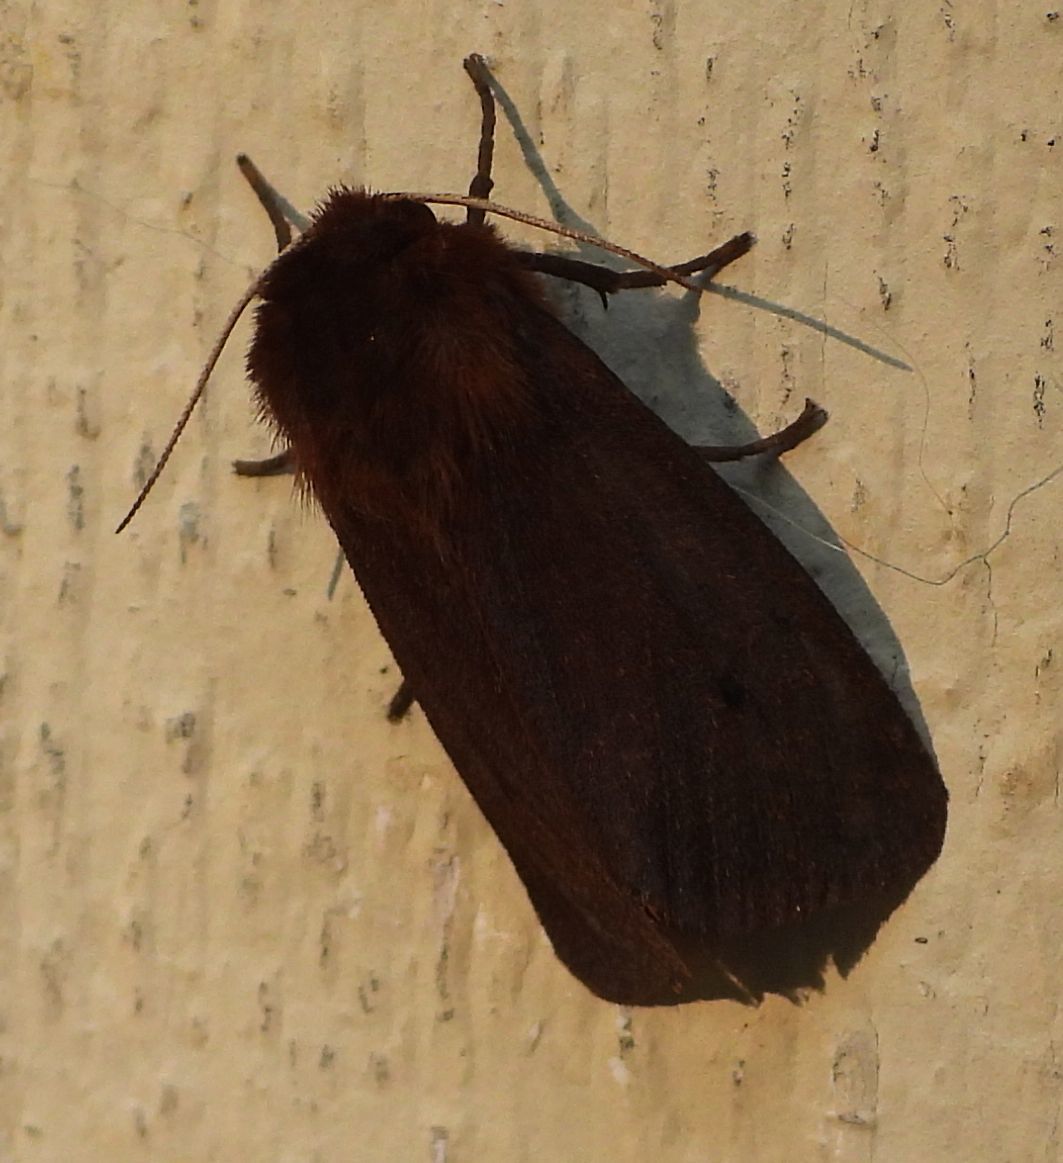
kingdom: Animalia
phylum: Arthropoda
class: Insecta
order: Lepidoptera
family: Erebidae
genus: Phragmatobia
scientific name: Phragmatobia fuliginosa
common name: Ruby tiger
